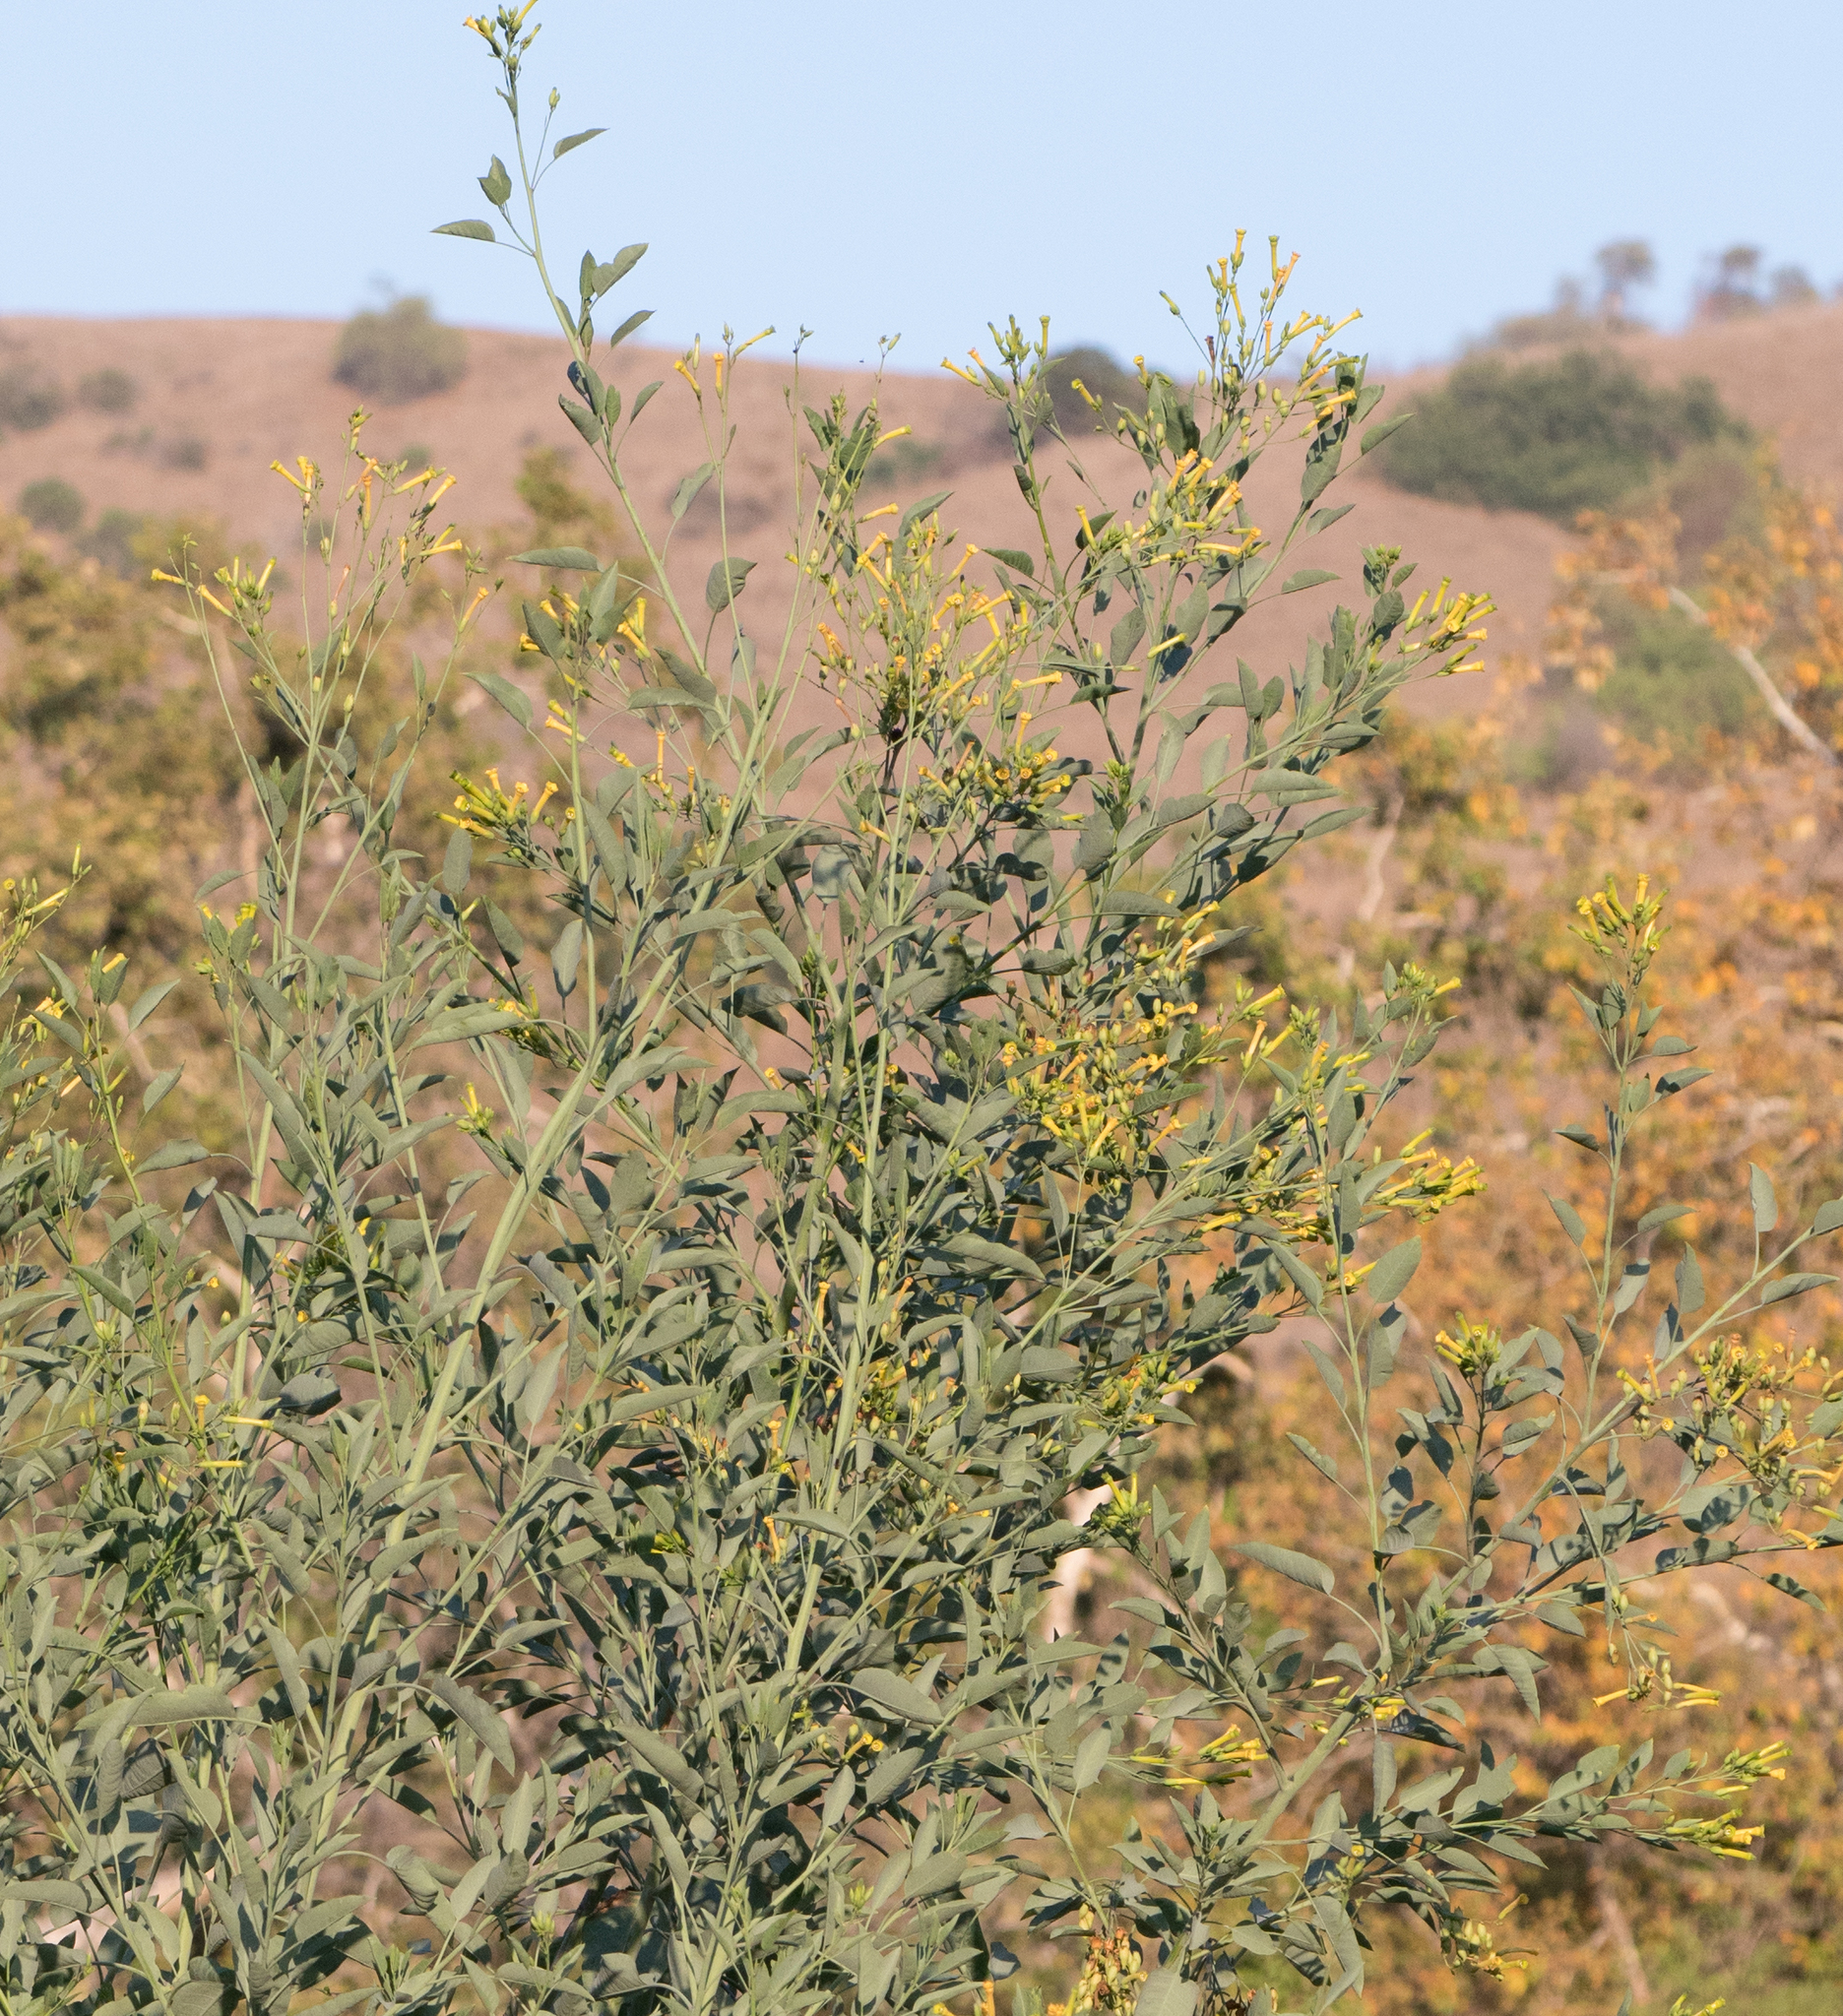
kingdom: Plantae
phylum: Tracheophyta
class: Magnoliopsida
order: Solanales
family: Solanaceae
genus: Nicotiana
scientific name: Nicotiana glauca
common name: Tree tobacco
